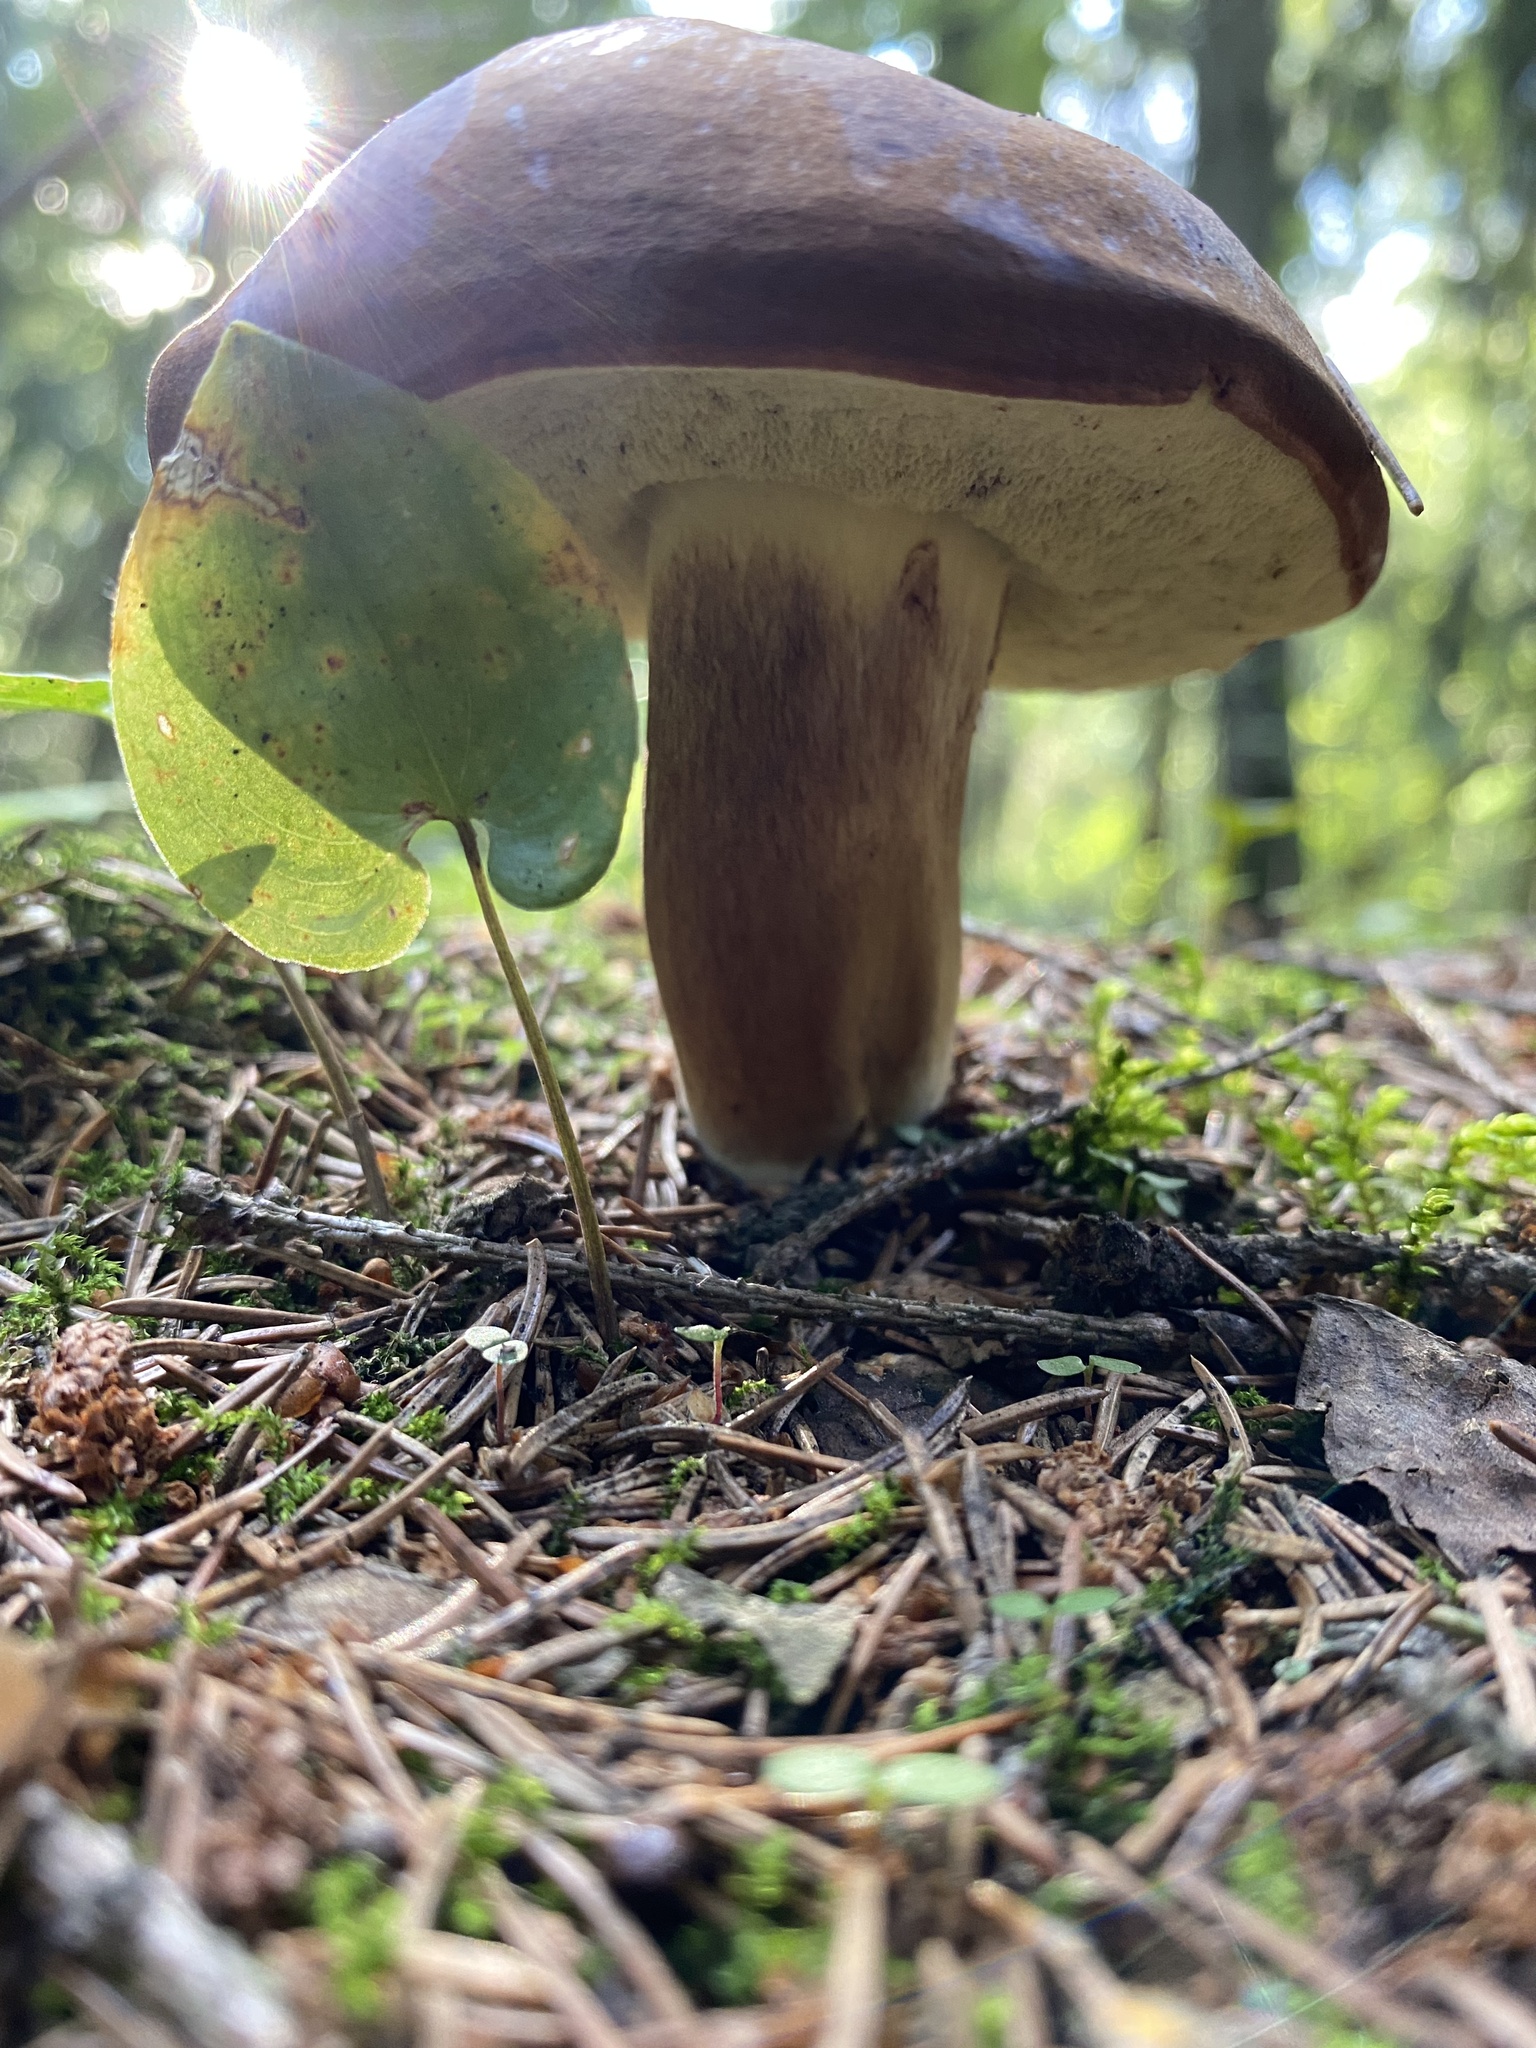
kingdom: Fungi
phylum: Basidiomycota
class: Agaricomycetes
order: Boletales
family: Boletaceae
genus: Imleria
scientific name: Imleria badia
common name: Bay bolete
